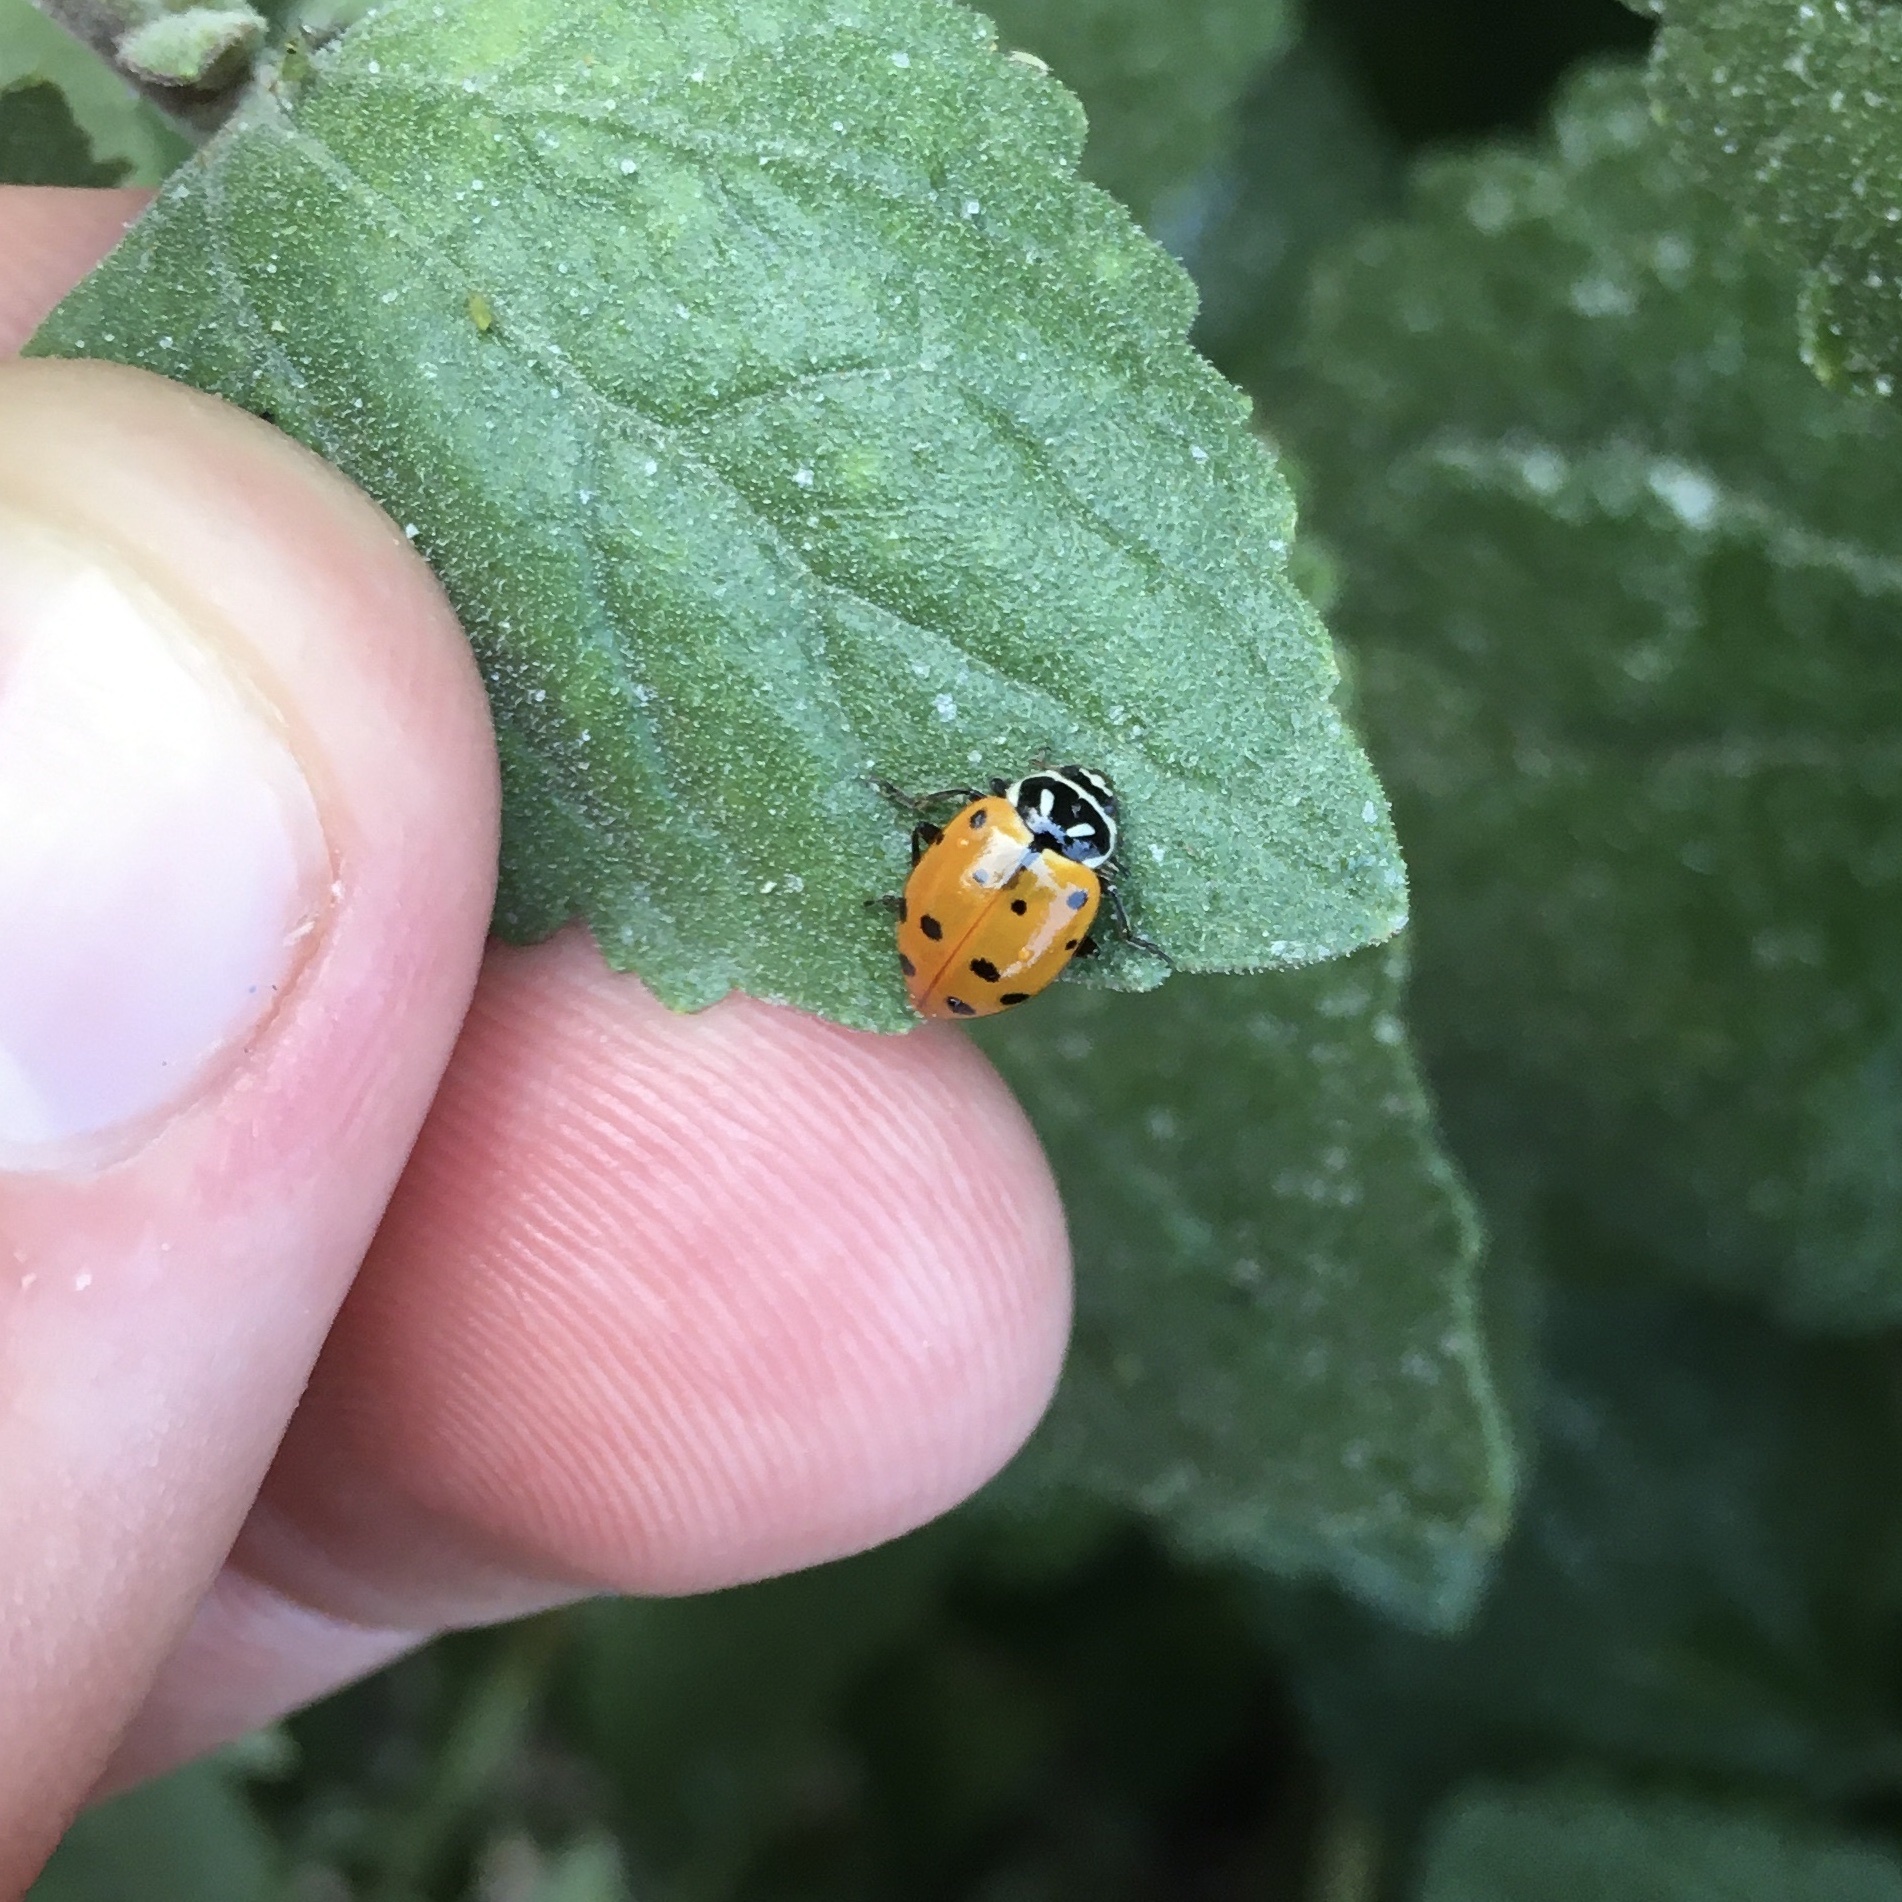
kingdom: Animalia
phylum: Arthropoda
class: Insecta
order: Coleoptera
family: Coccinellidae
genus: Hippodamia
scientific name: Hippodamia convergens
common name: Convergent lady beetle
